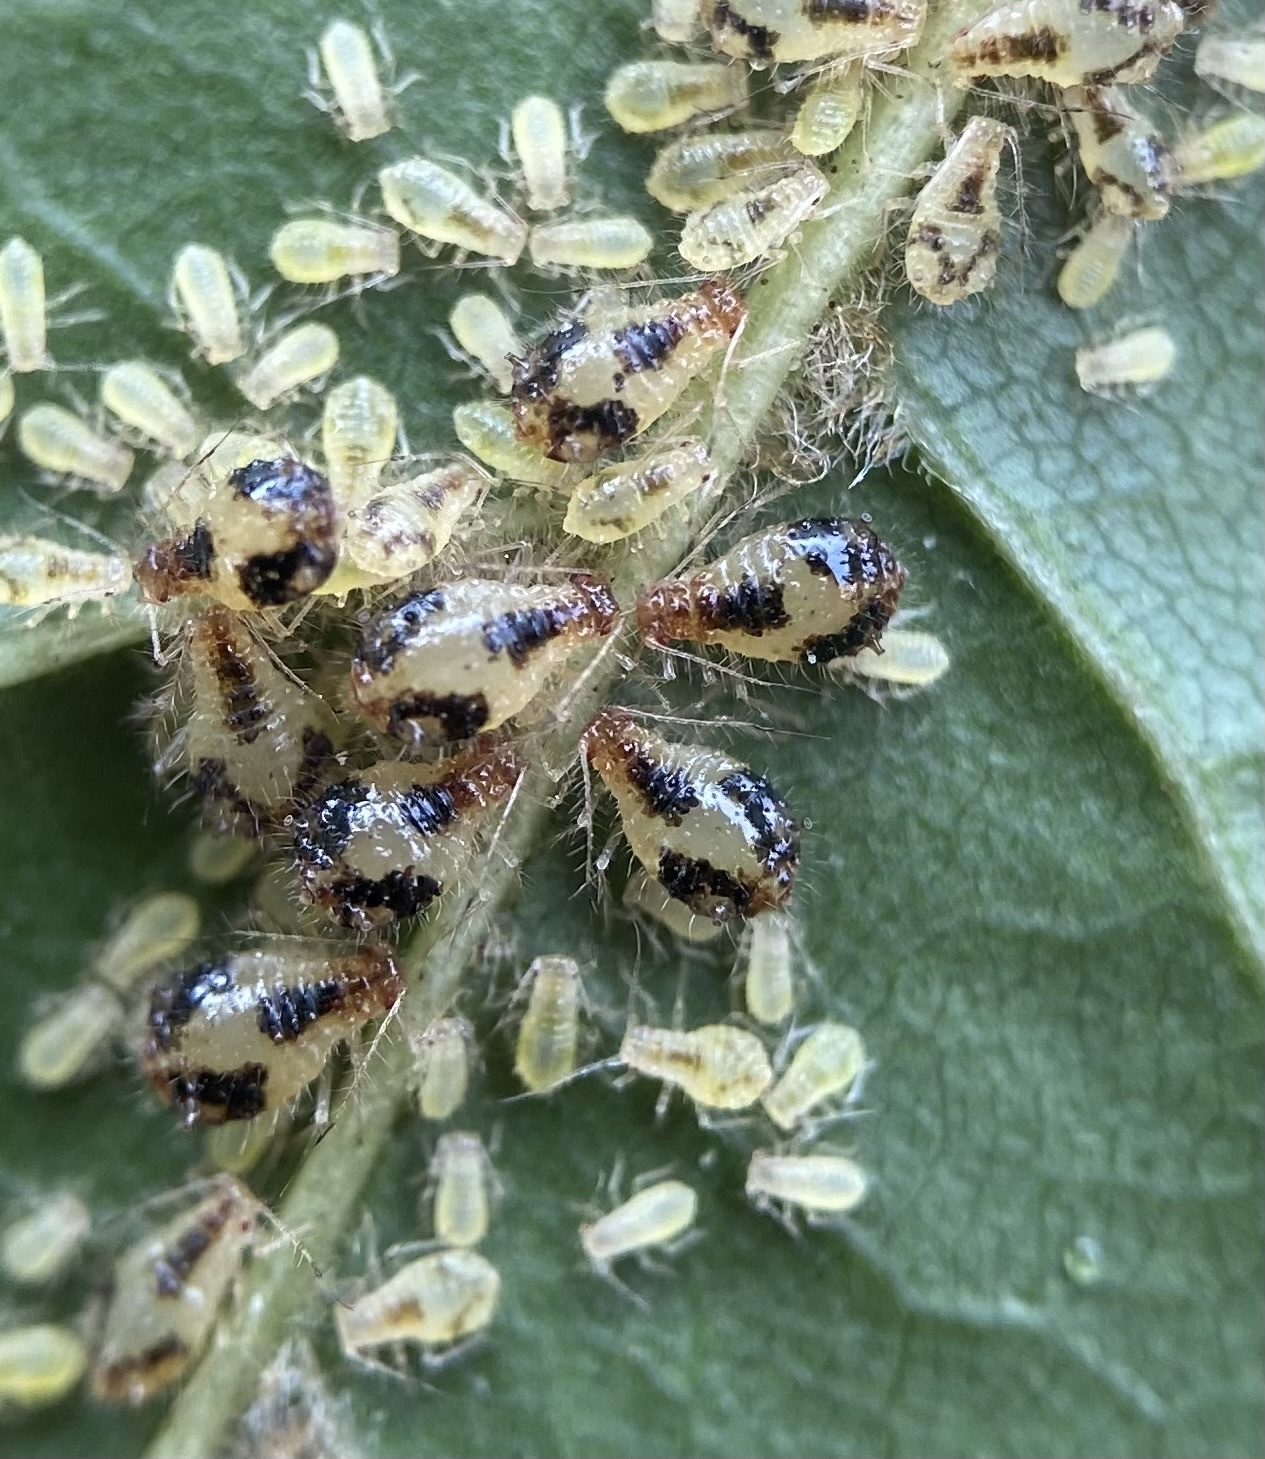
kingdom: Animalia
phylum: Arthropoda
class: Insecta
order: Hemiptera
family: Aphididae
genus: Periphyllus
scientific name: Periphyllus lyropictus
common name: Norway maple aphid
